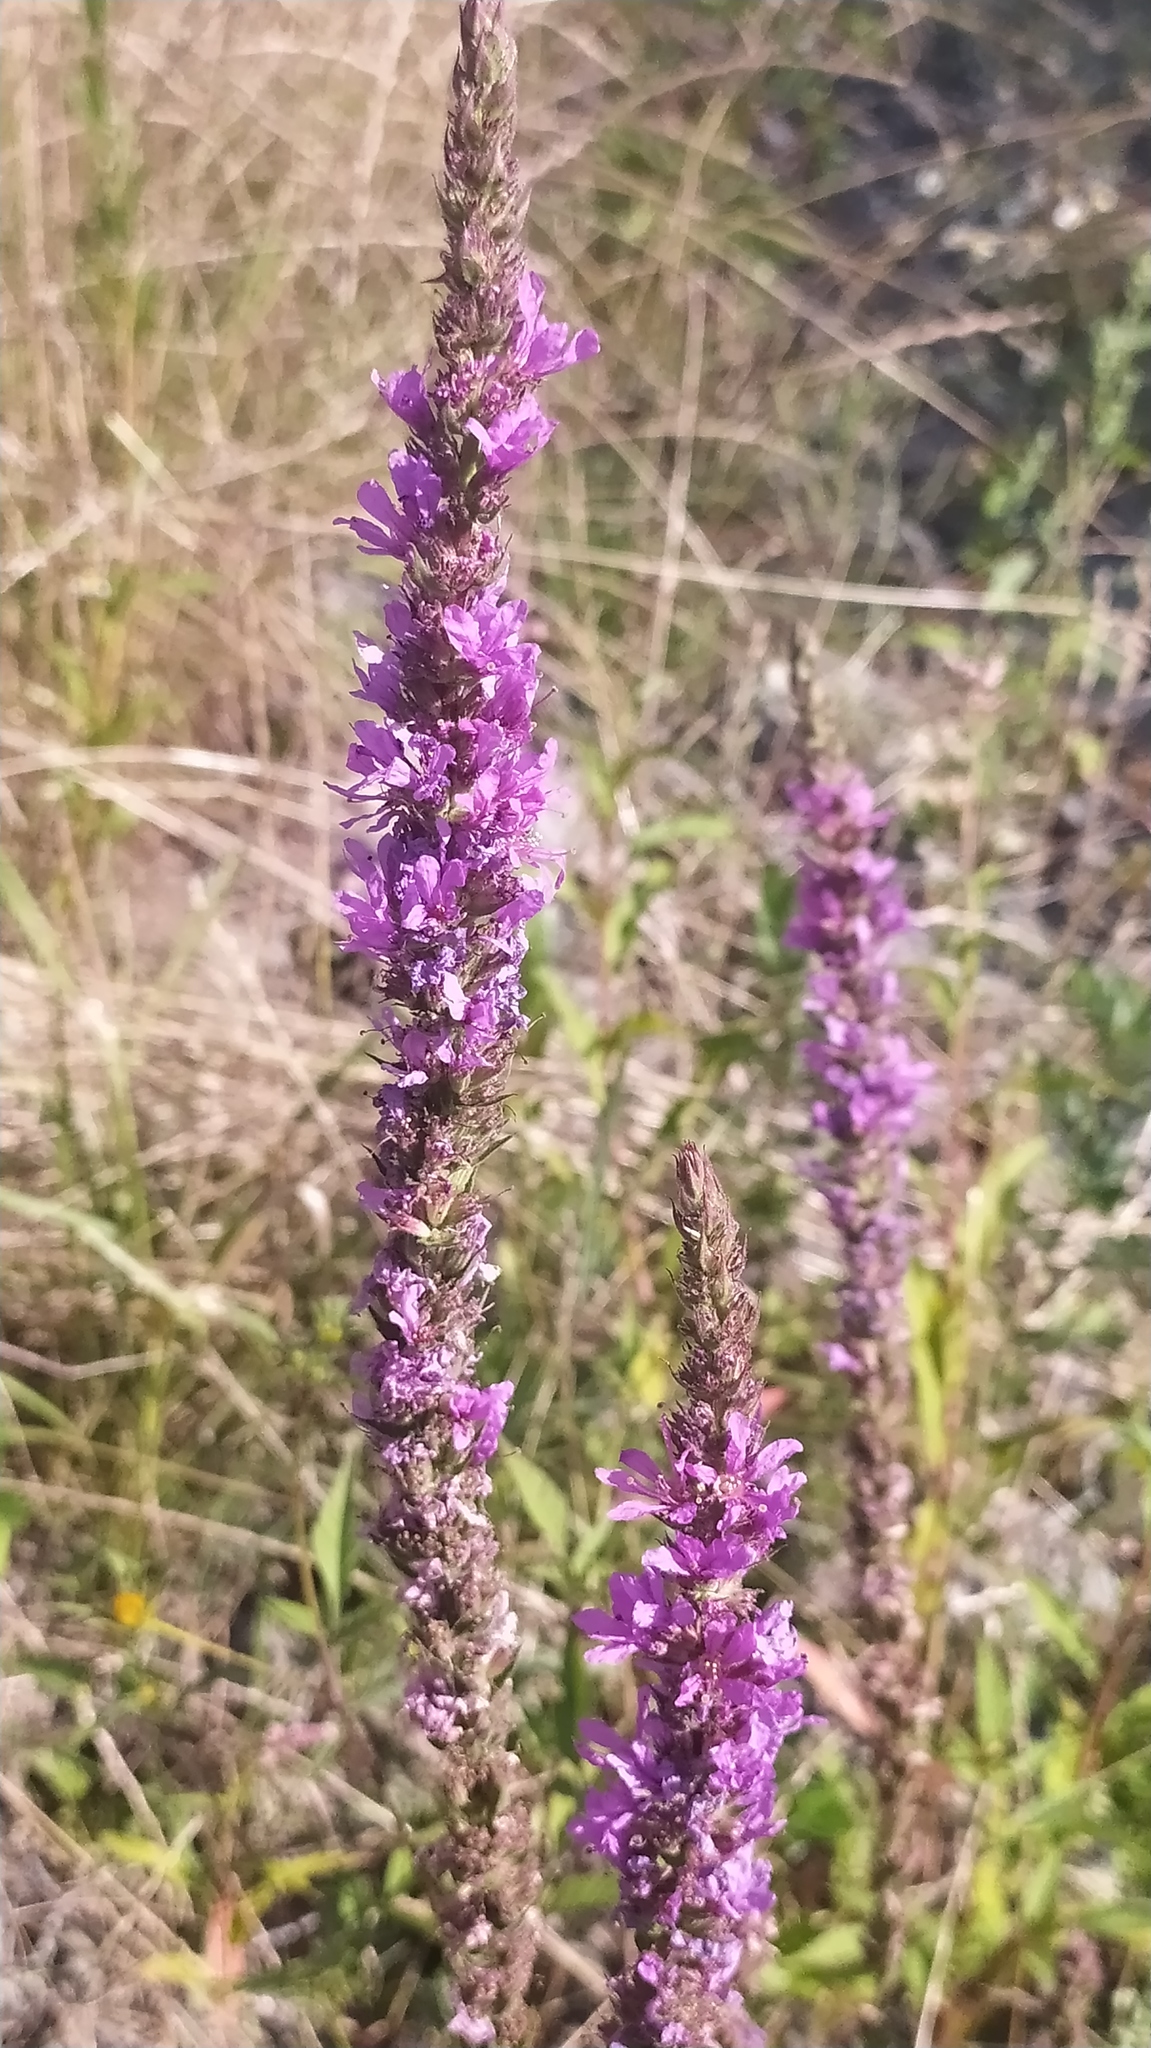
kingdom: Plantae
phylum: Tracheophyta
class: Magnoliopsida
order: Myrtales
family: Lythraceae
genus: Lythrum
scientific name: Lythrum salicaria
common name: Purple loosestrife
